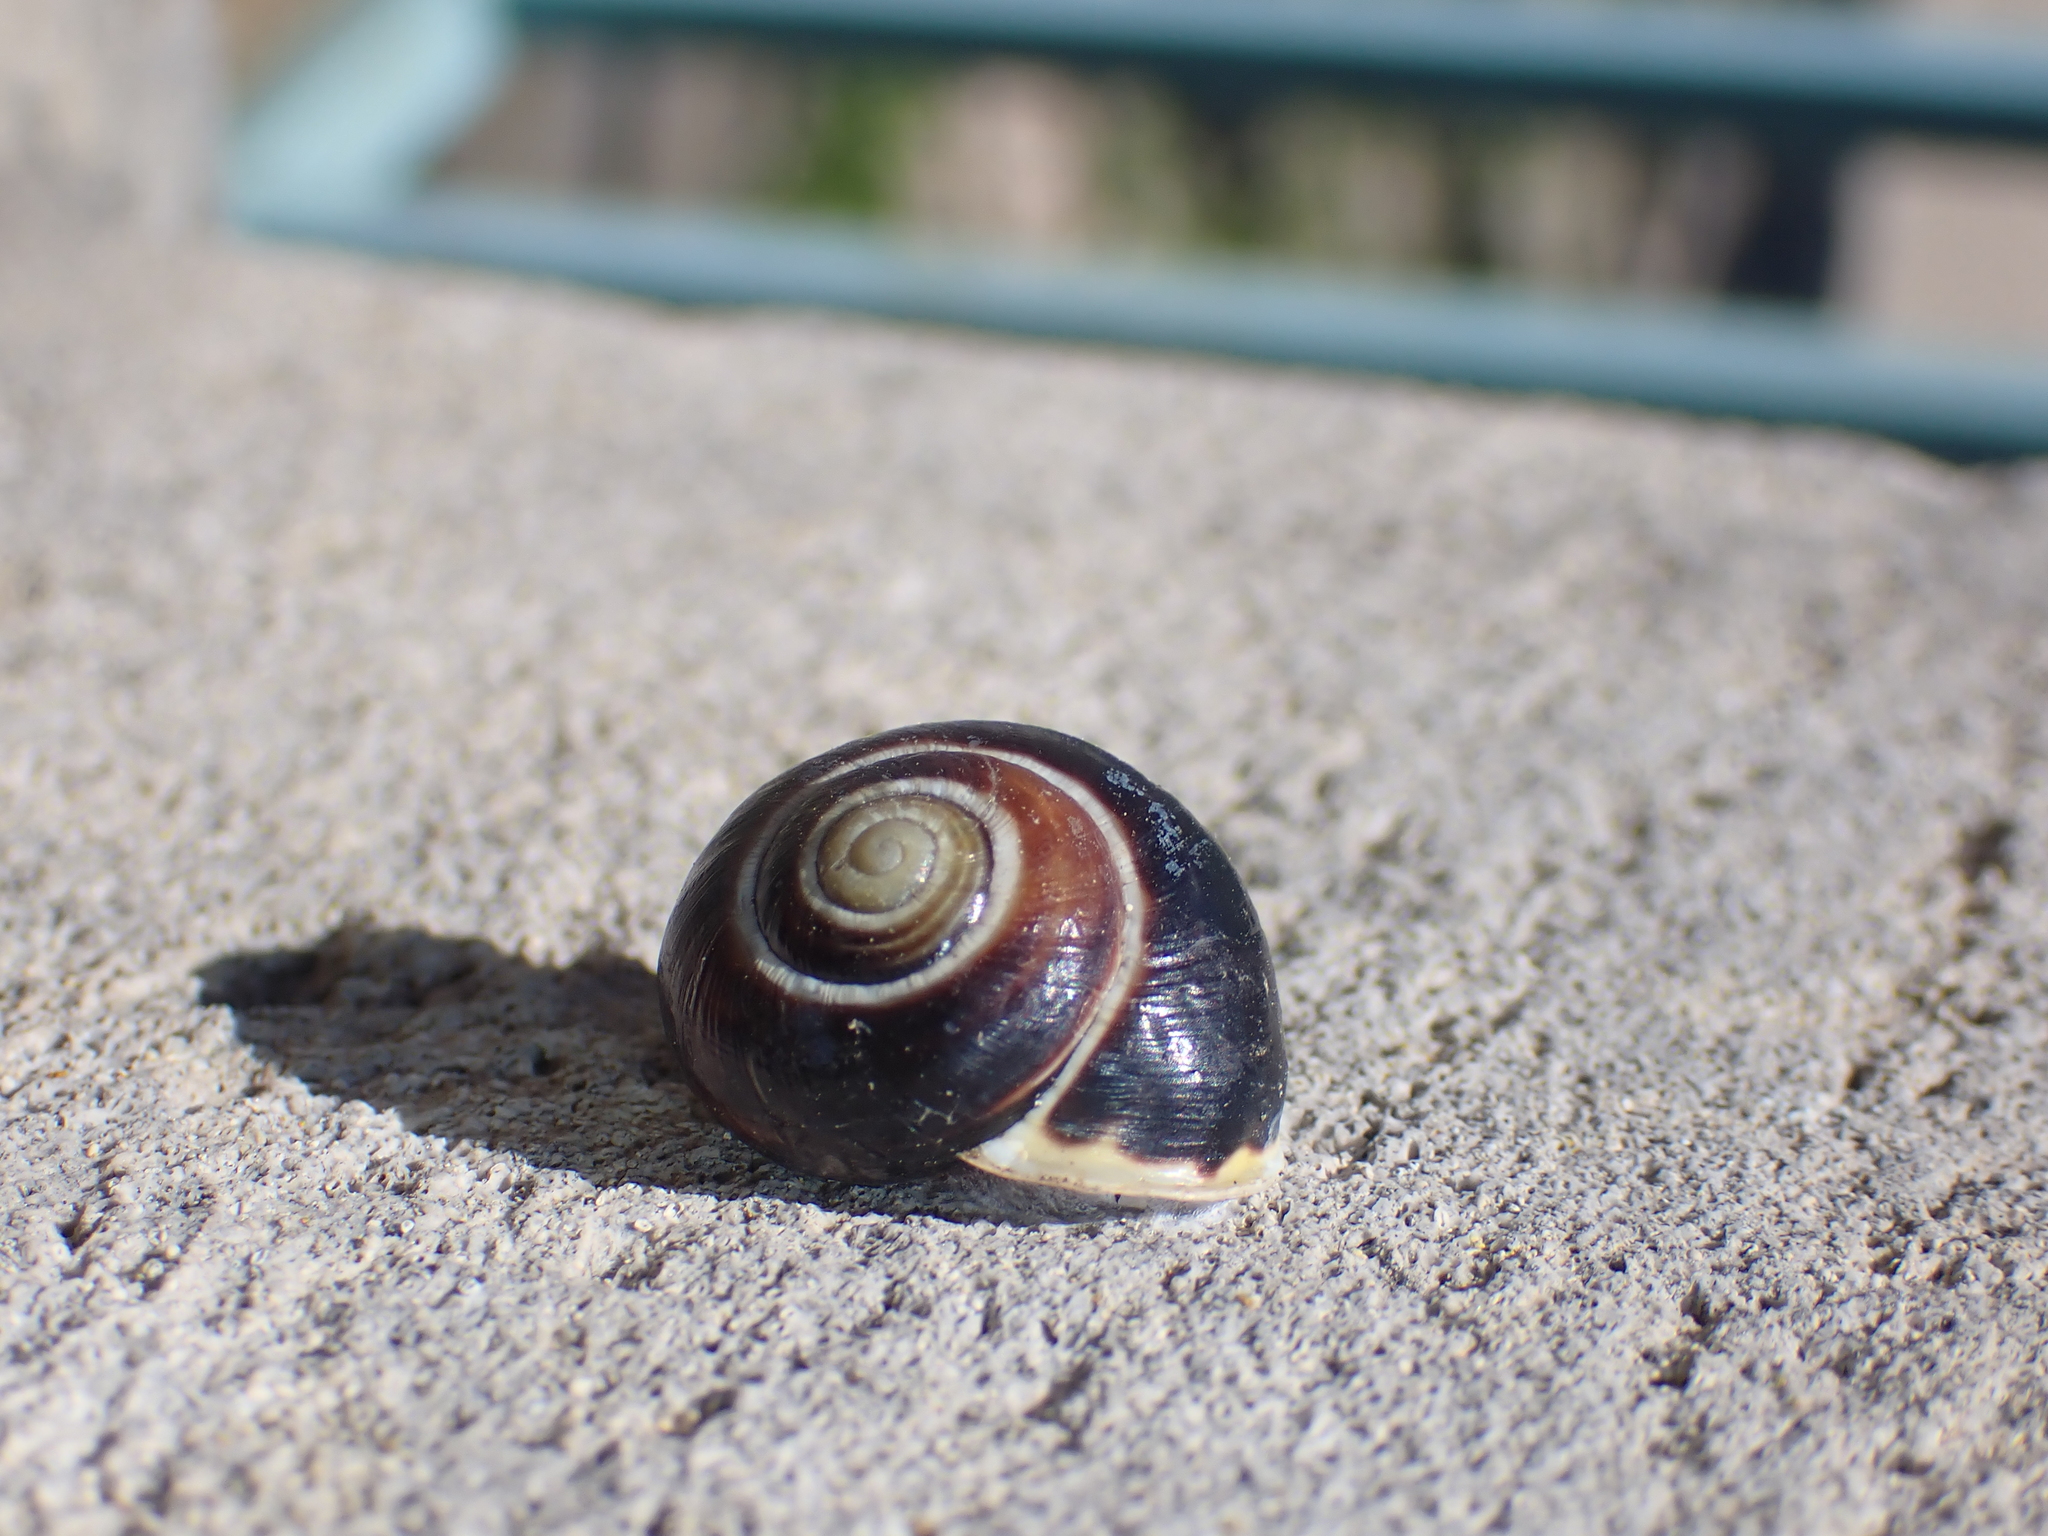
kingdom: Animalia
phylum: Mollusca
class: Gastropoda
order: Stylommatophora
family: Helicidae
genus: Cepaea
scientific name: Cepaea hortensis
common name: White-lip gardensnail
